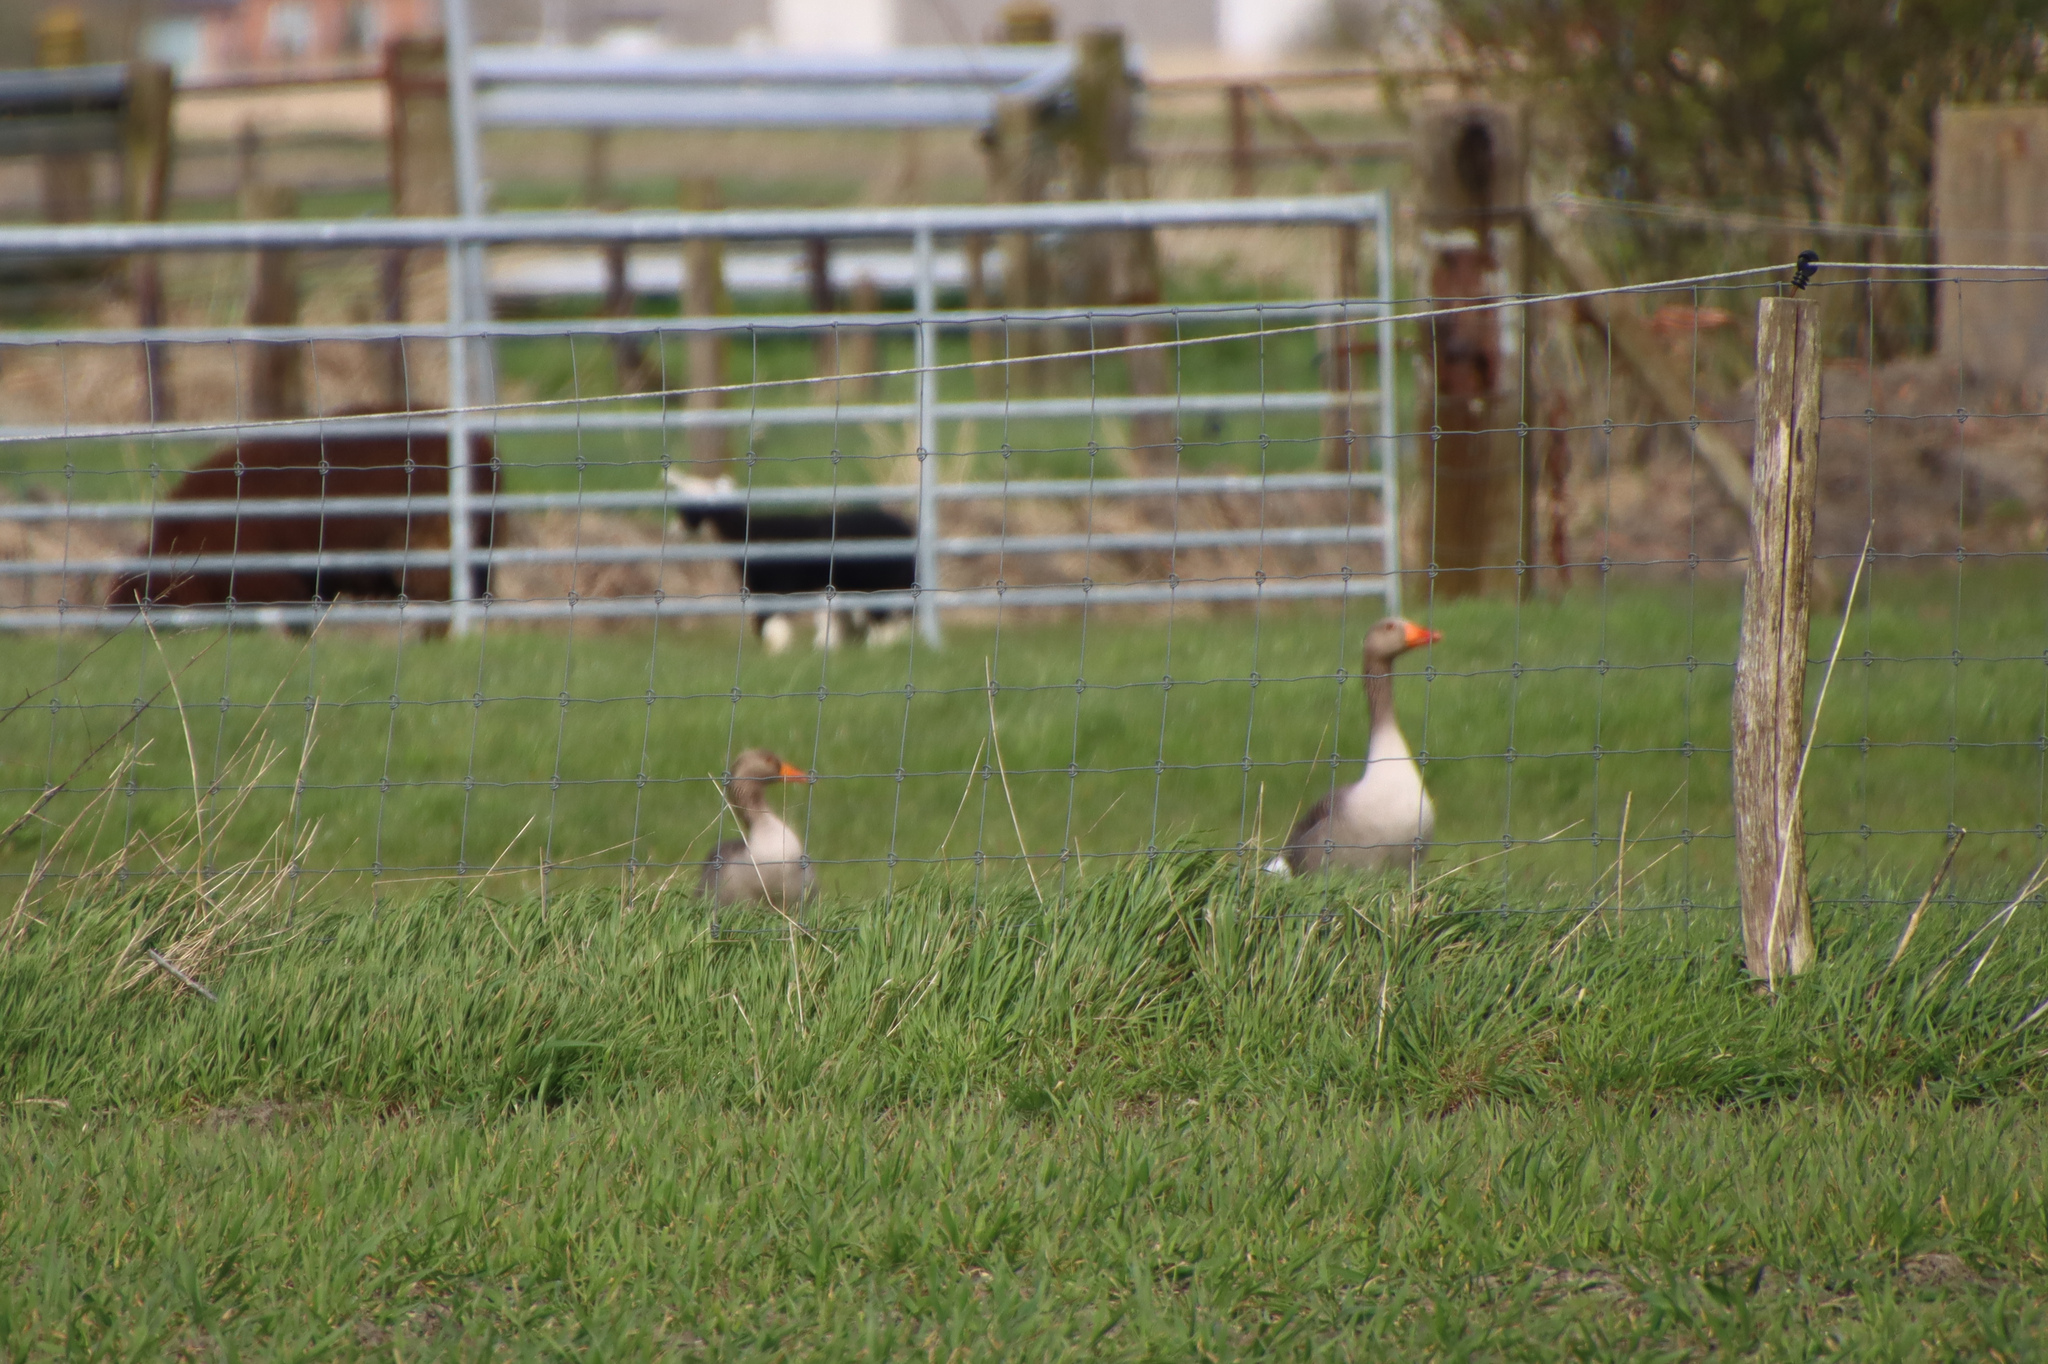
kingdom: Animalia
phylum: Chordata
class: Aves
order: Anseriformes
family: Anatidae
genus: Anser
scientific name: Anser anser
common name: Greylag goose
